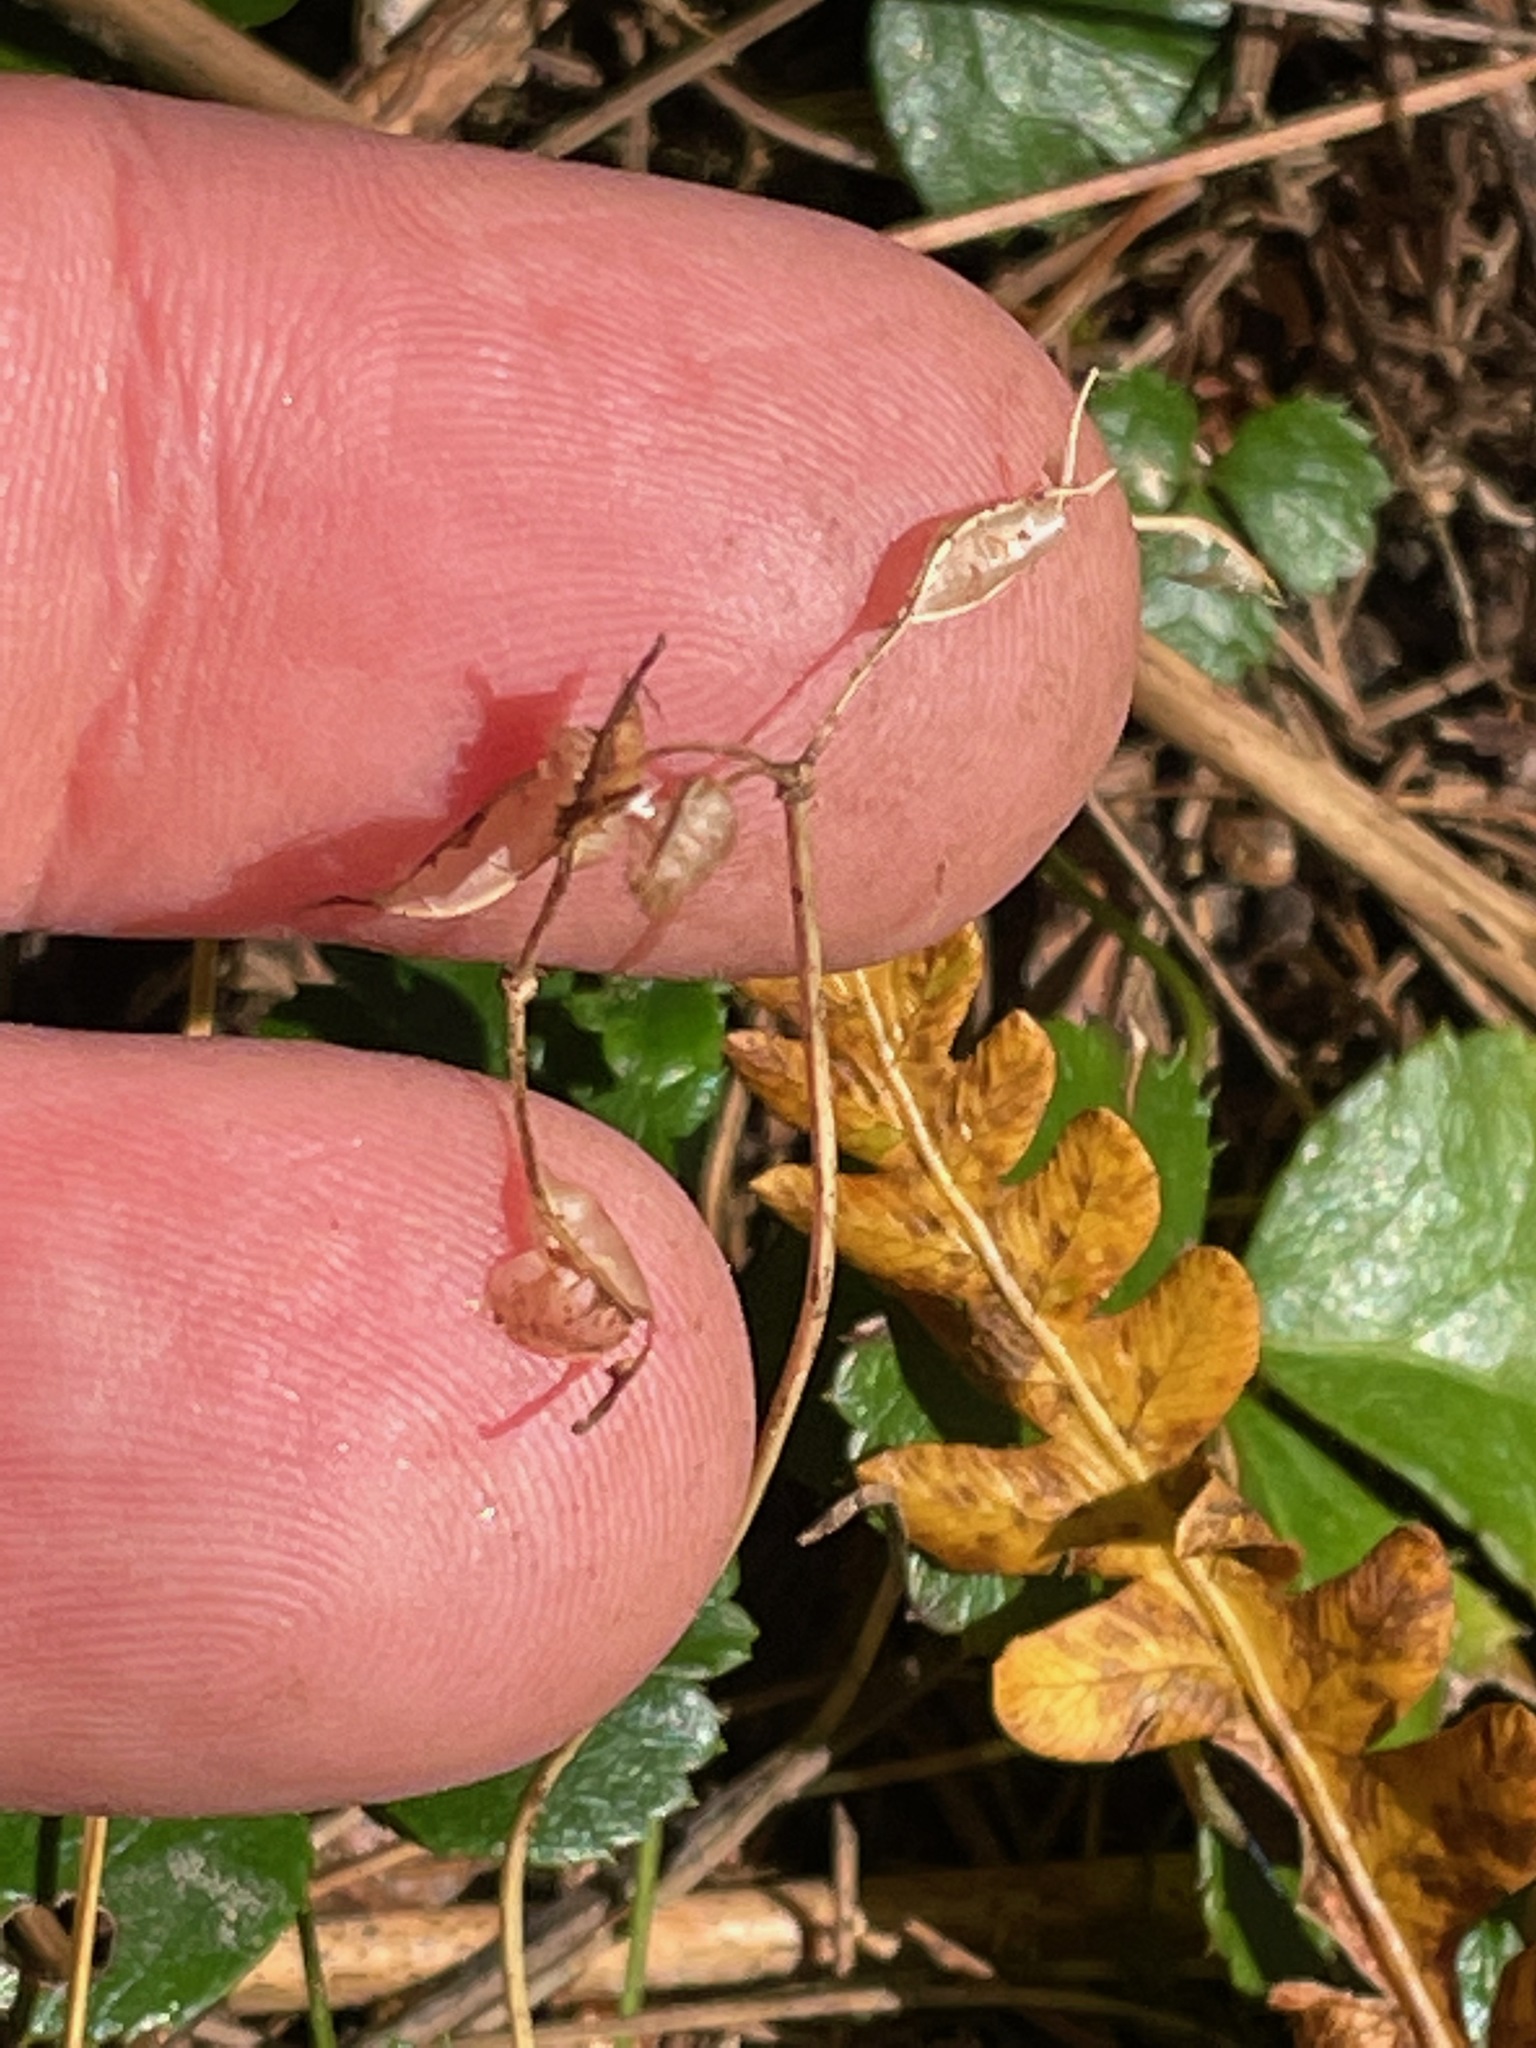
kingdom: Plantae
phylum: Tracheophyta
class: Magnoliopsida
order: Ranunculales
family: Ranunculaceae
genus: Coptis
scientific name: Coptis trifolia
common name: Canker-root
